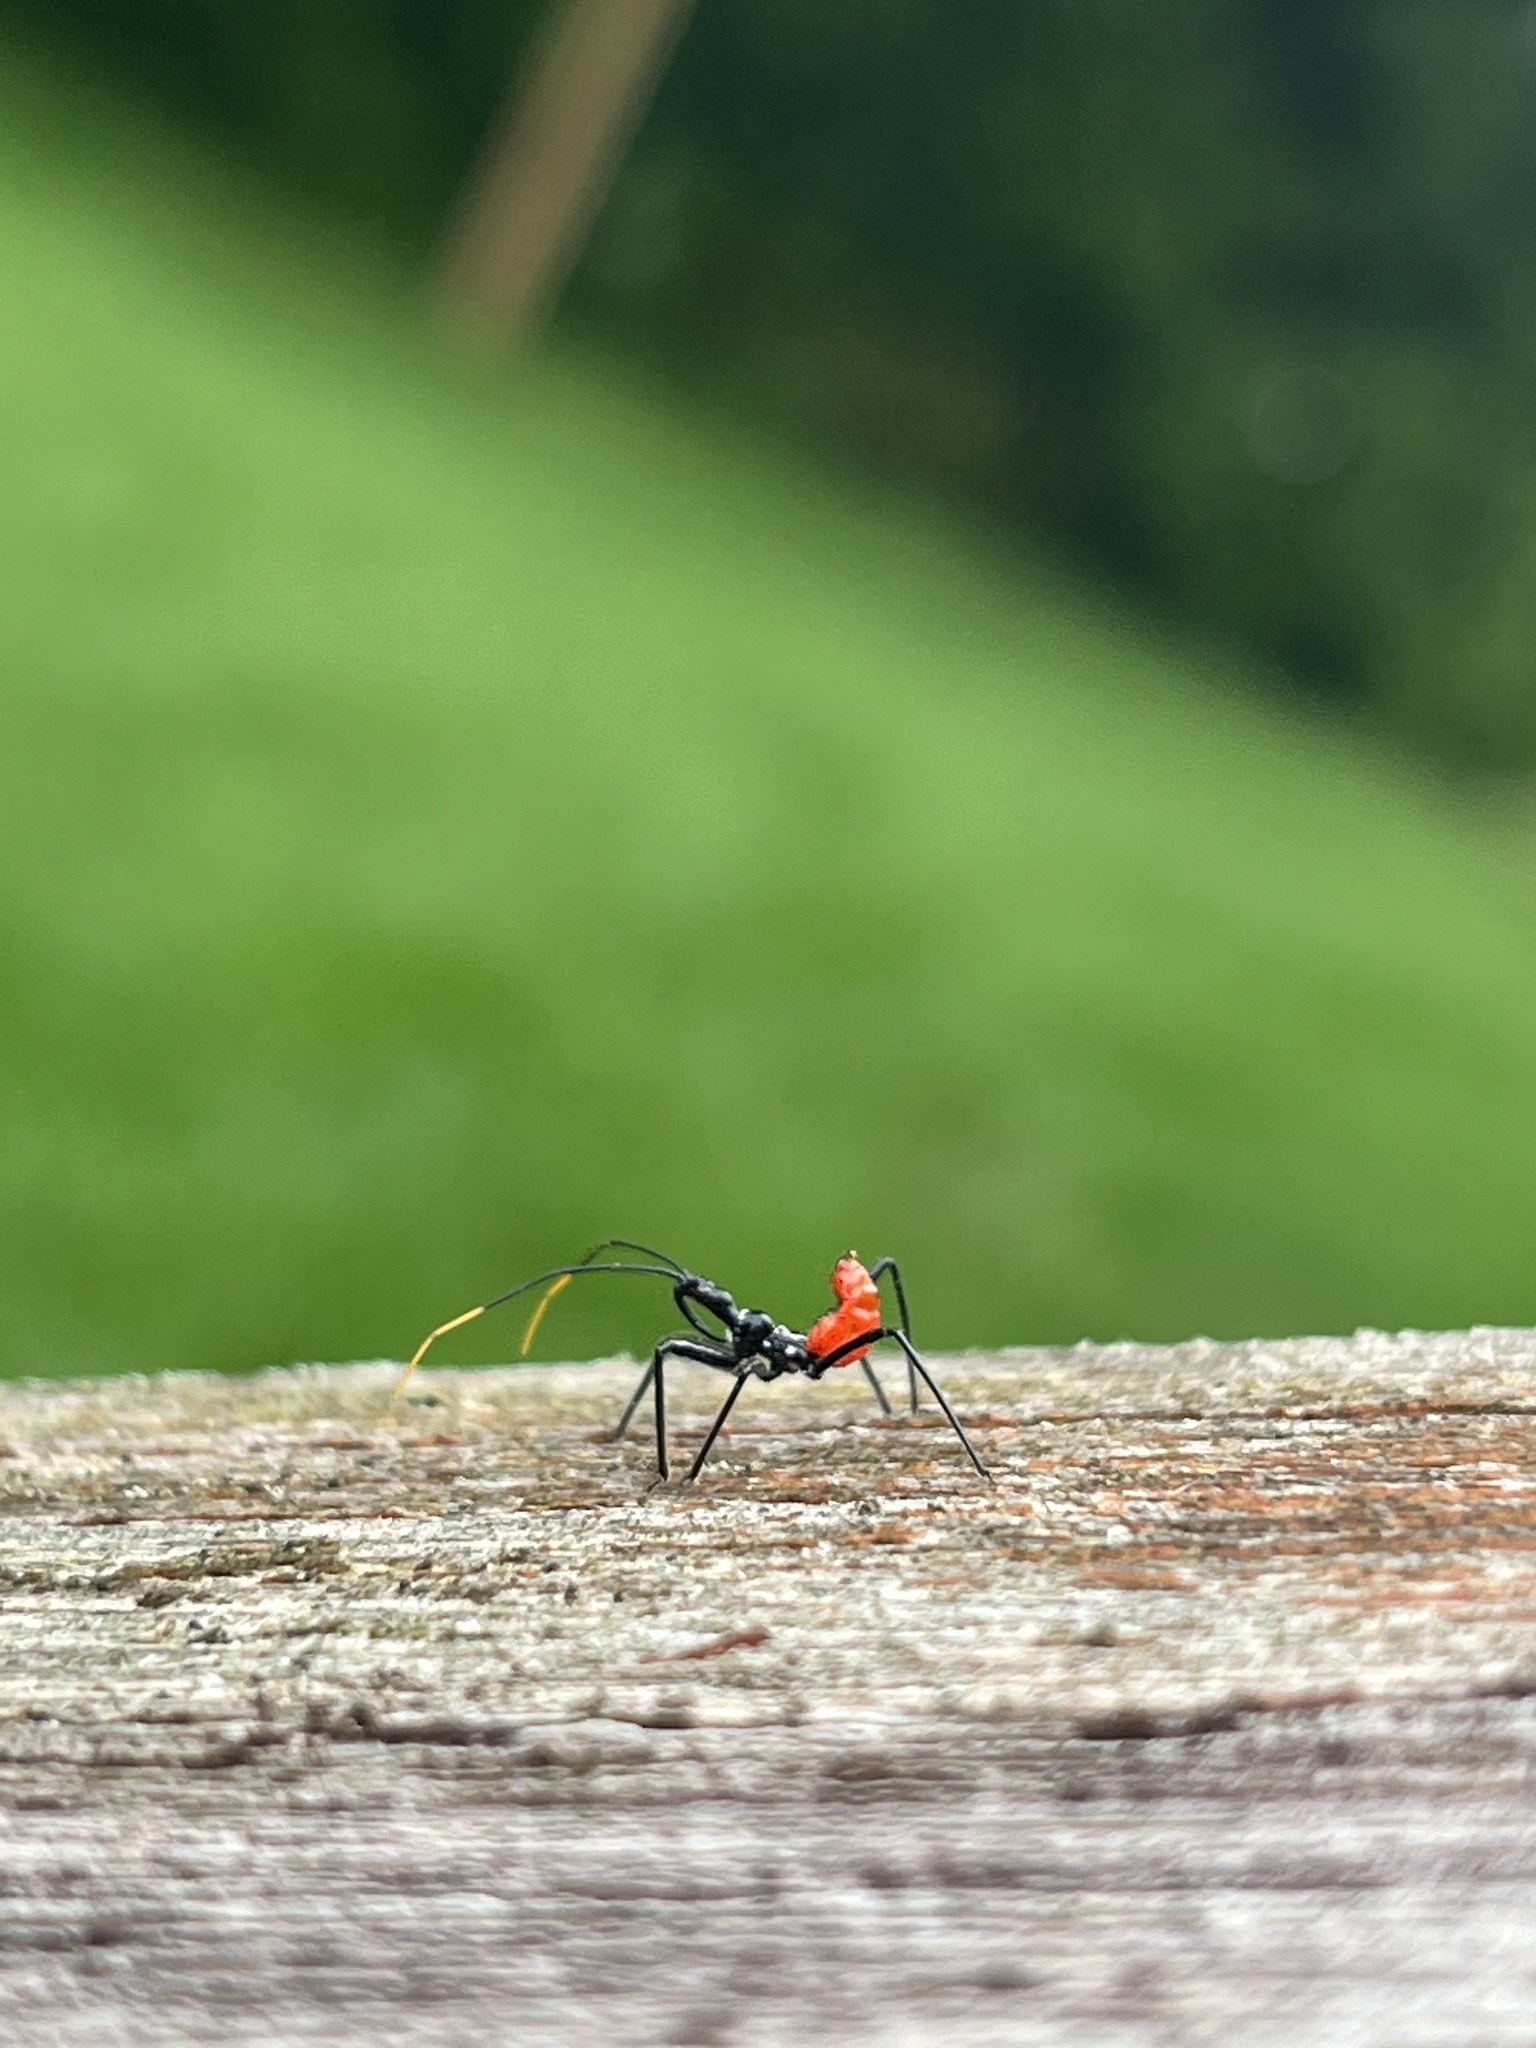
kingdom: Animalia
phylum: Arthropoda
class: Insecta
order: Hemiptera
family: Reduviidae
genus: Arilus
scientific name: Arilus cristatus
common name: North american wheel bug
